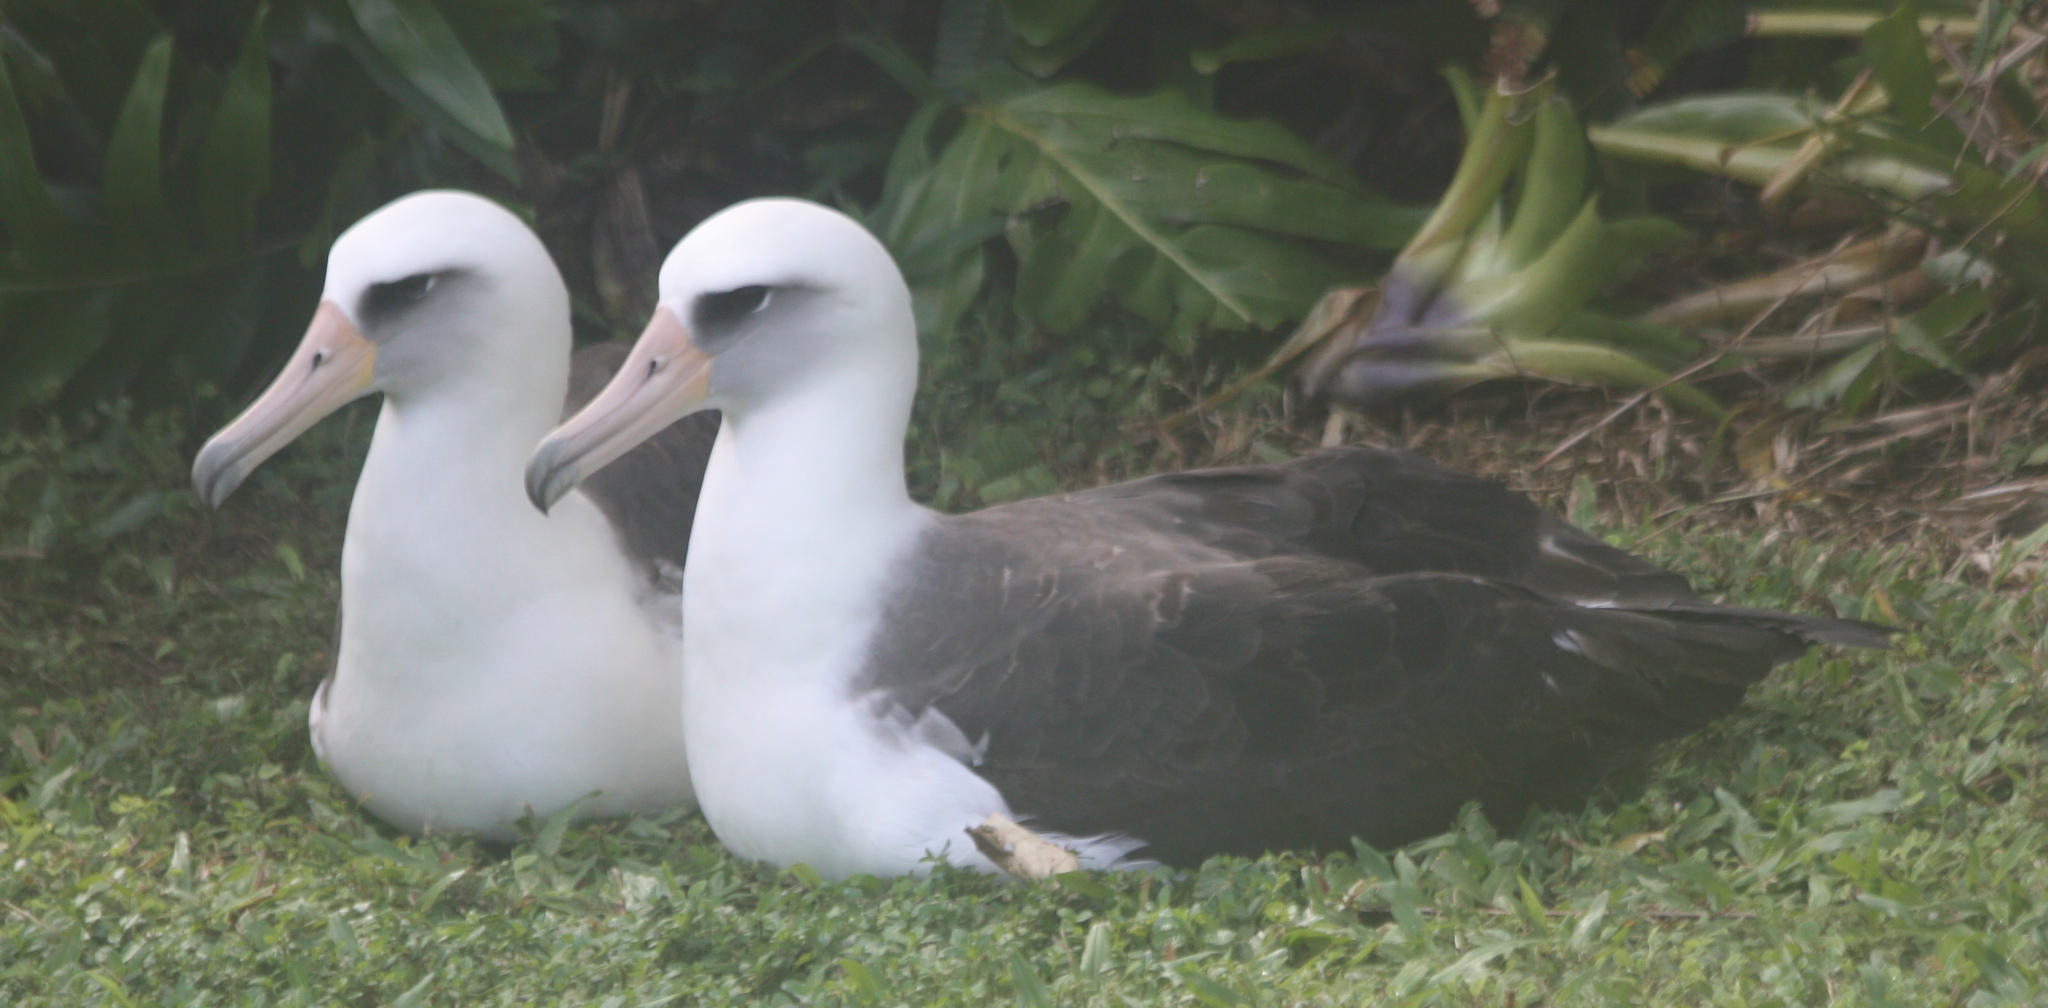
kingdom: Animalia
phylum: Chordata
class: Aves
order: Procellariiformes
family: Diomedeidae
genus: Phoebastria
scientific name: Phoebastria immutabilis
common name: Laysan albatross
